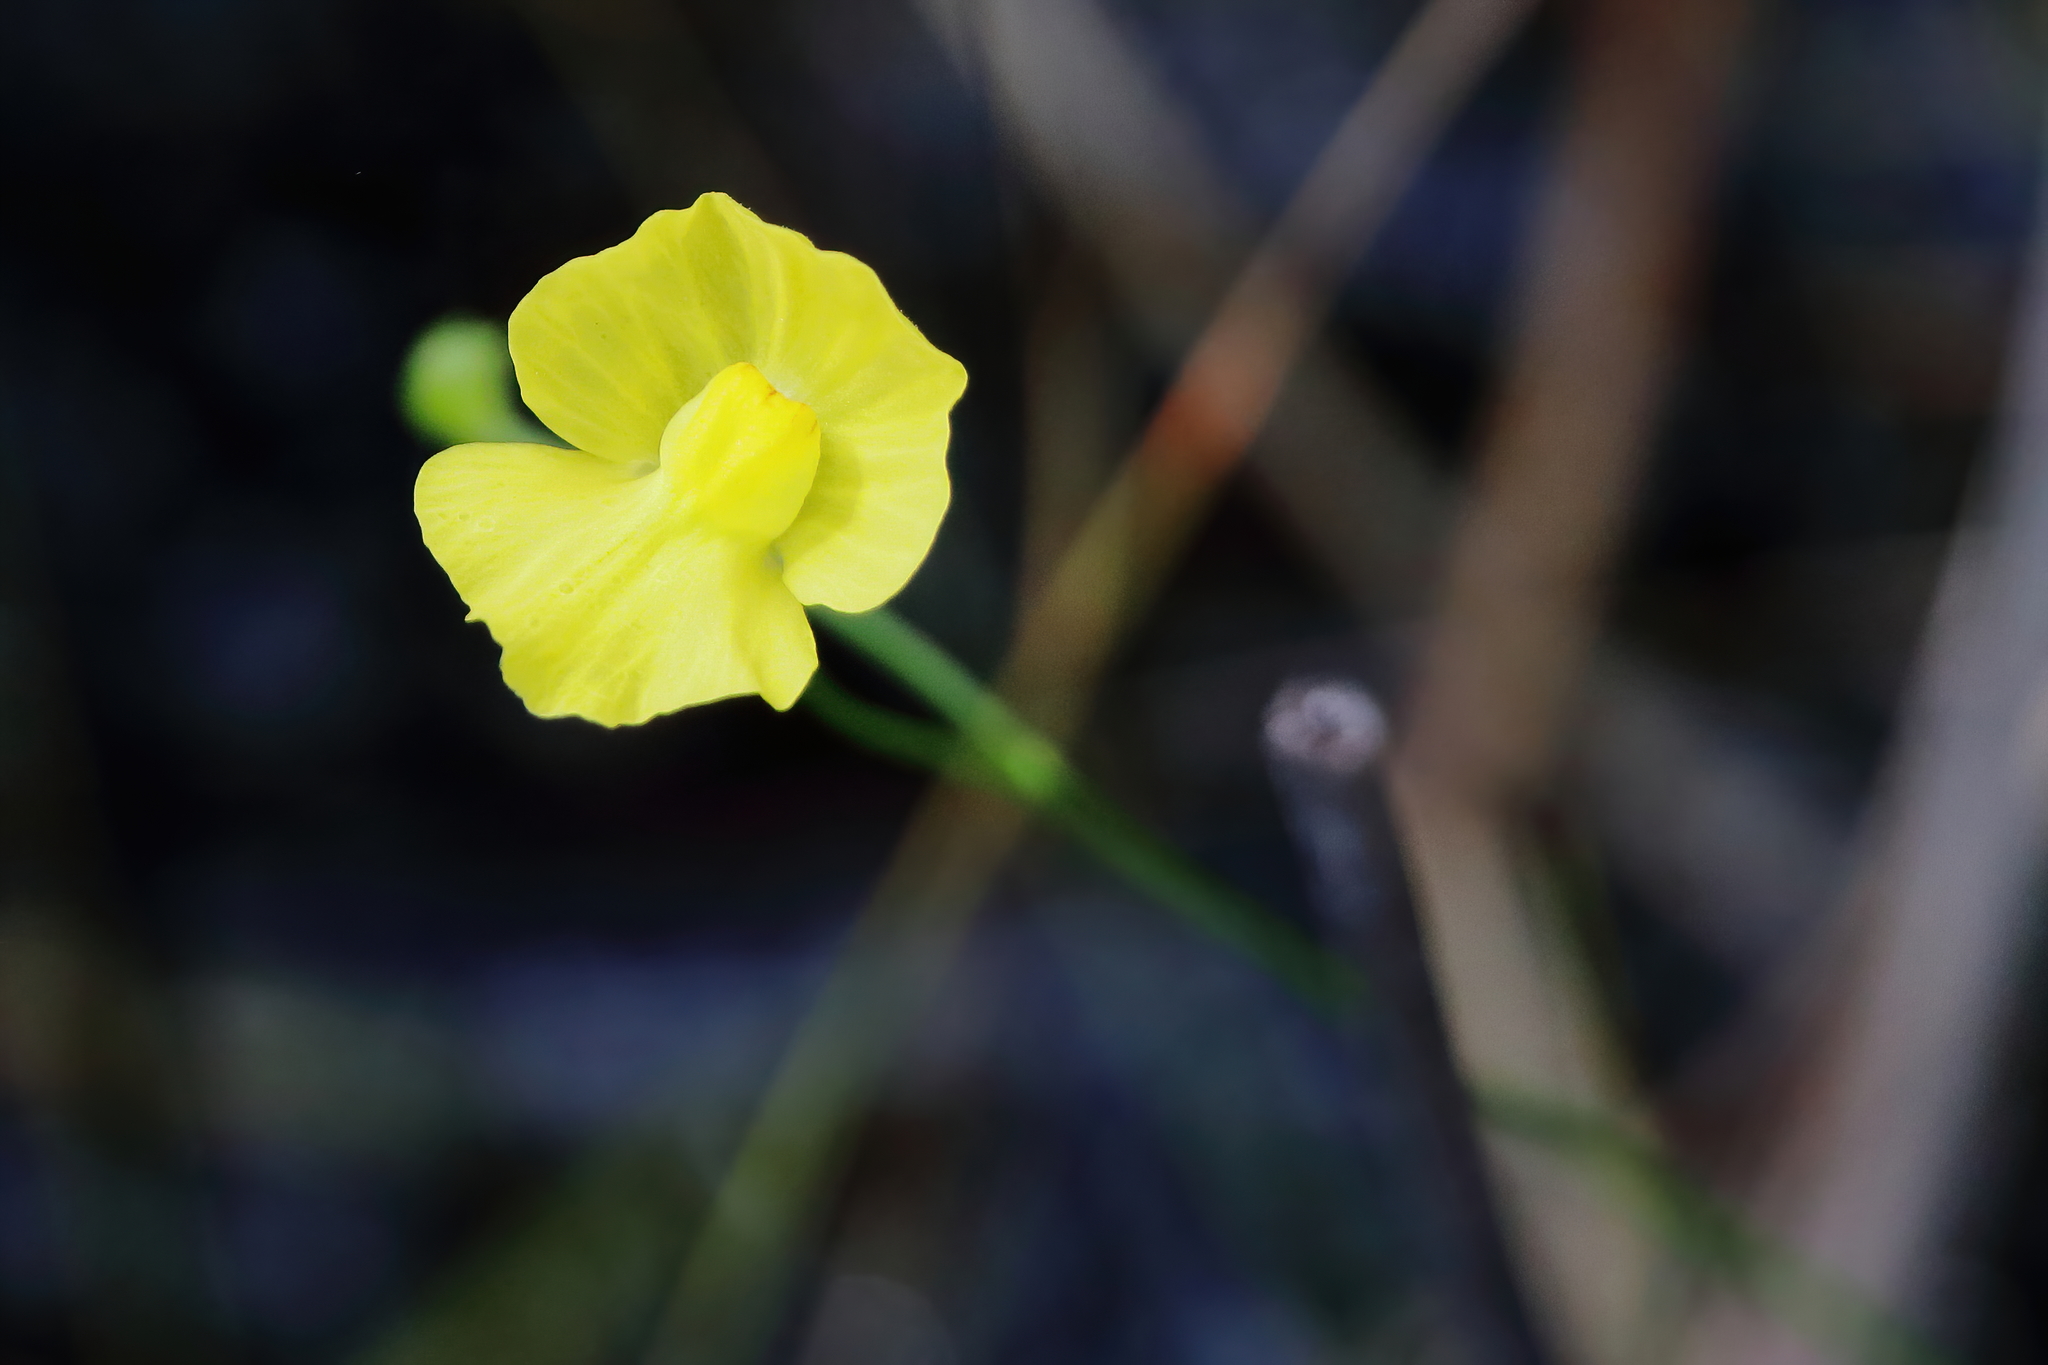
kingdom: Plantae
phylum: Tracheophyta
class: Magnoliopsida
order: Lamiales
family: Lentibulariaceae
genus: Utricularia
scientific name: Utricularia gibba
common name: Humped bladderwort
